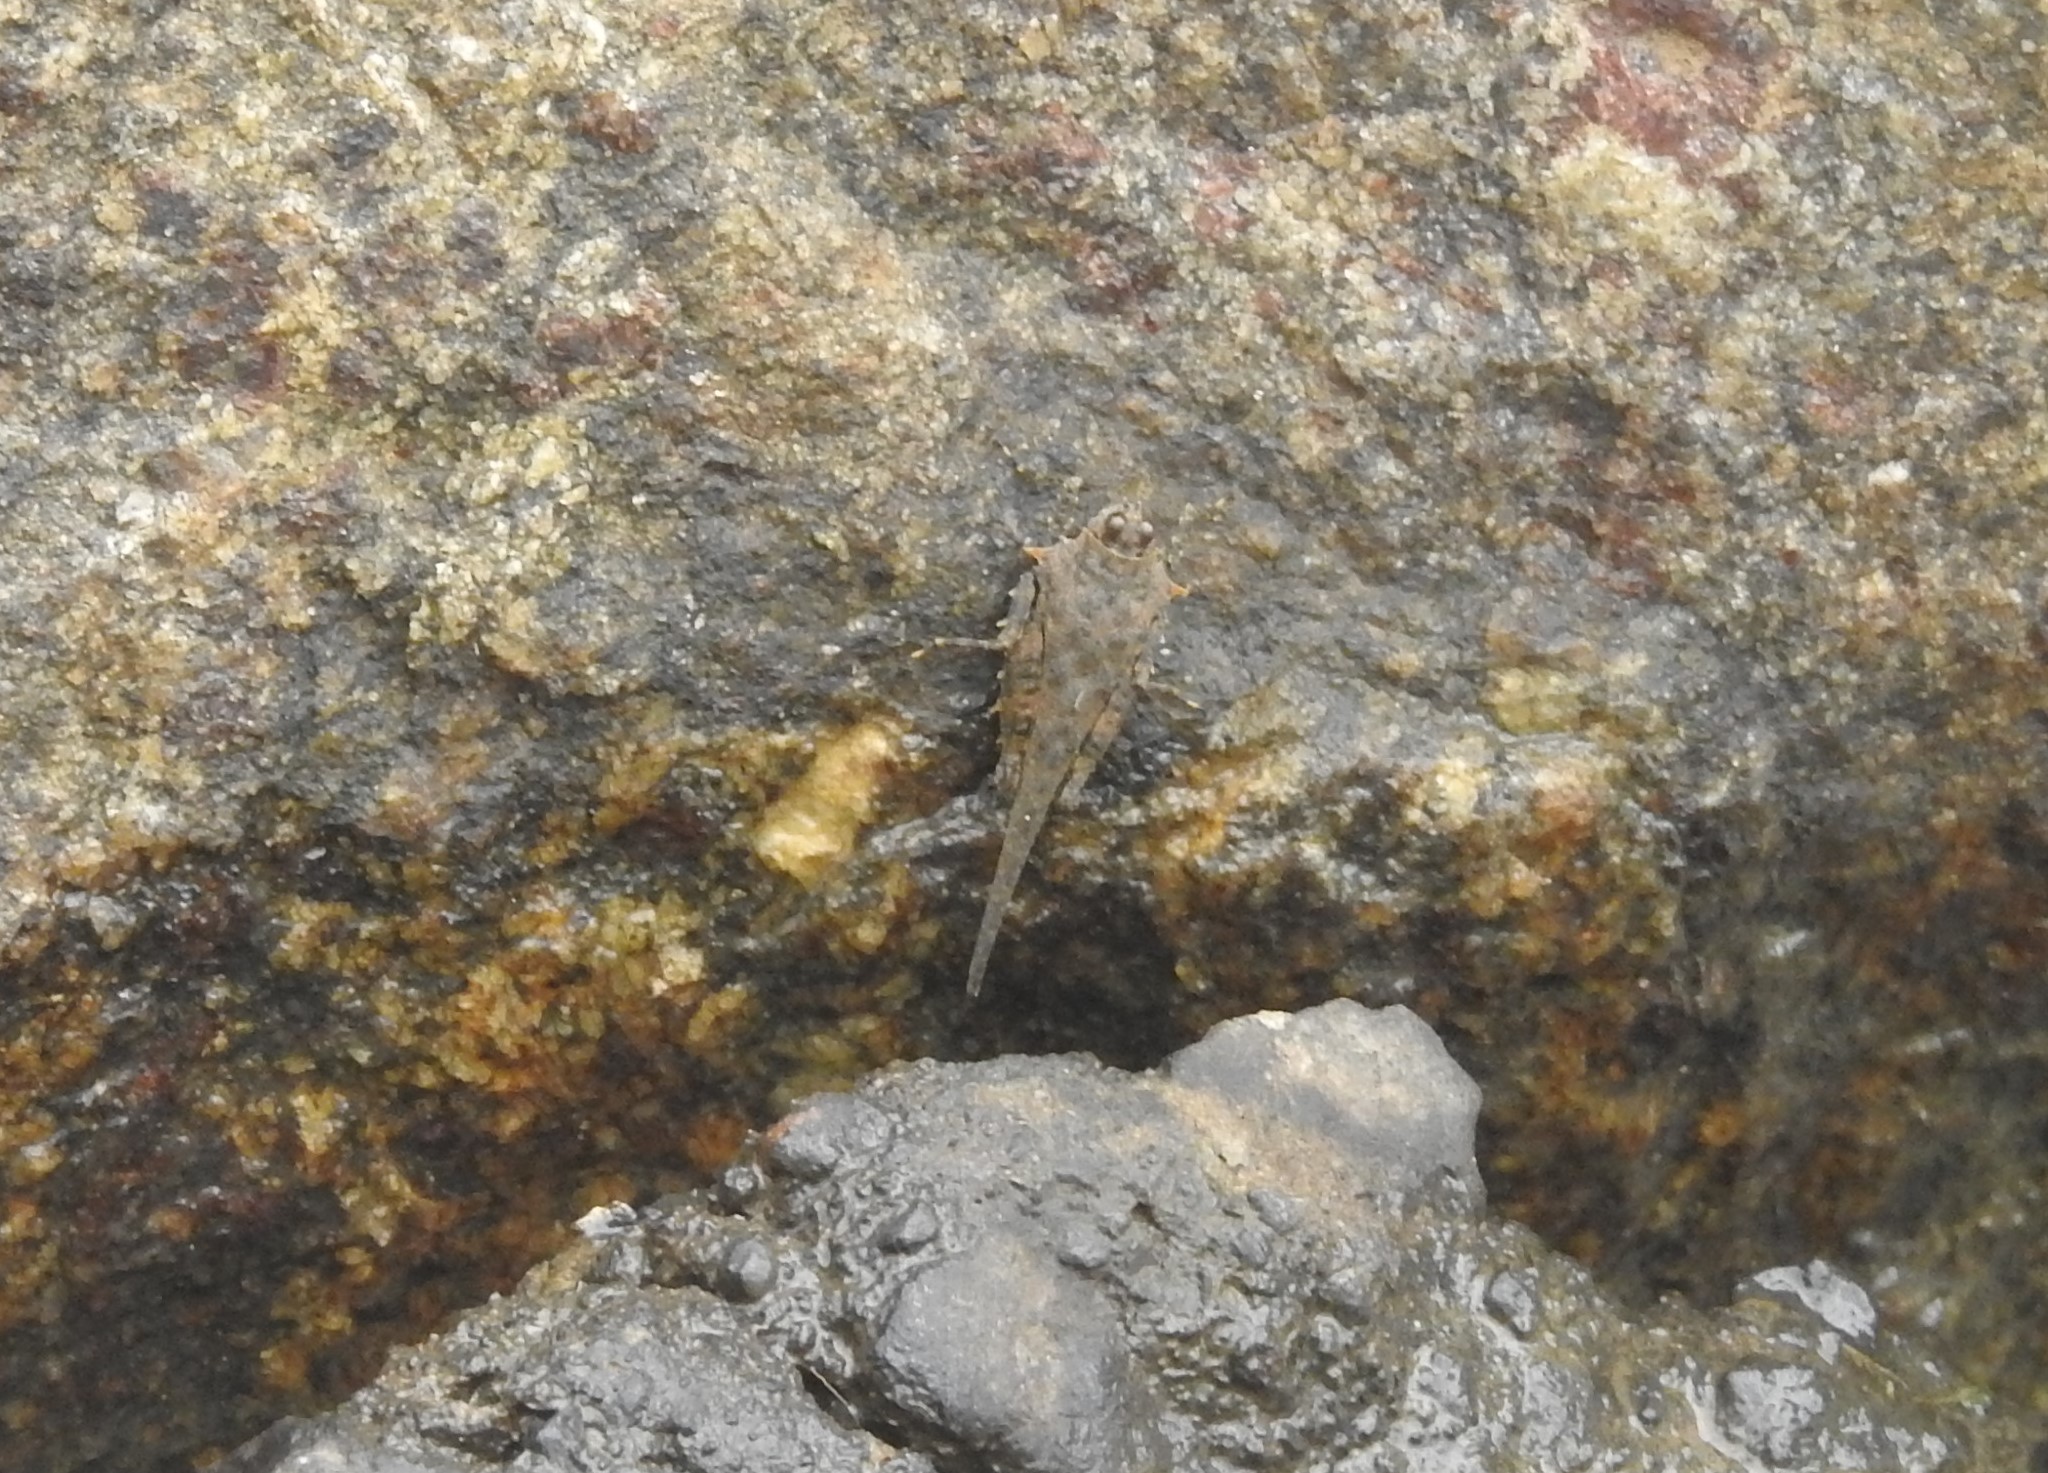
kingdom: Animalia
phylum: Arthropoda
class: Insecta
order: Orthoptera
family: Tetrigidae
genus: Euscelimena
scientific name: Euscelimena harpago
